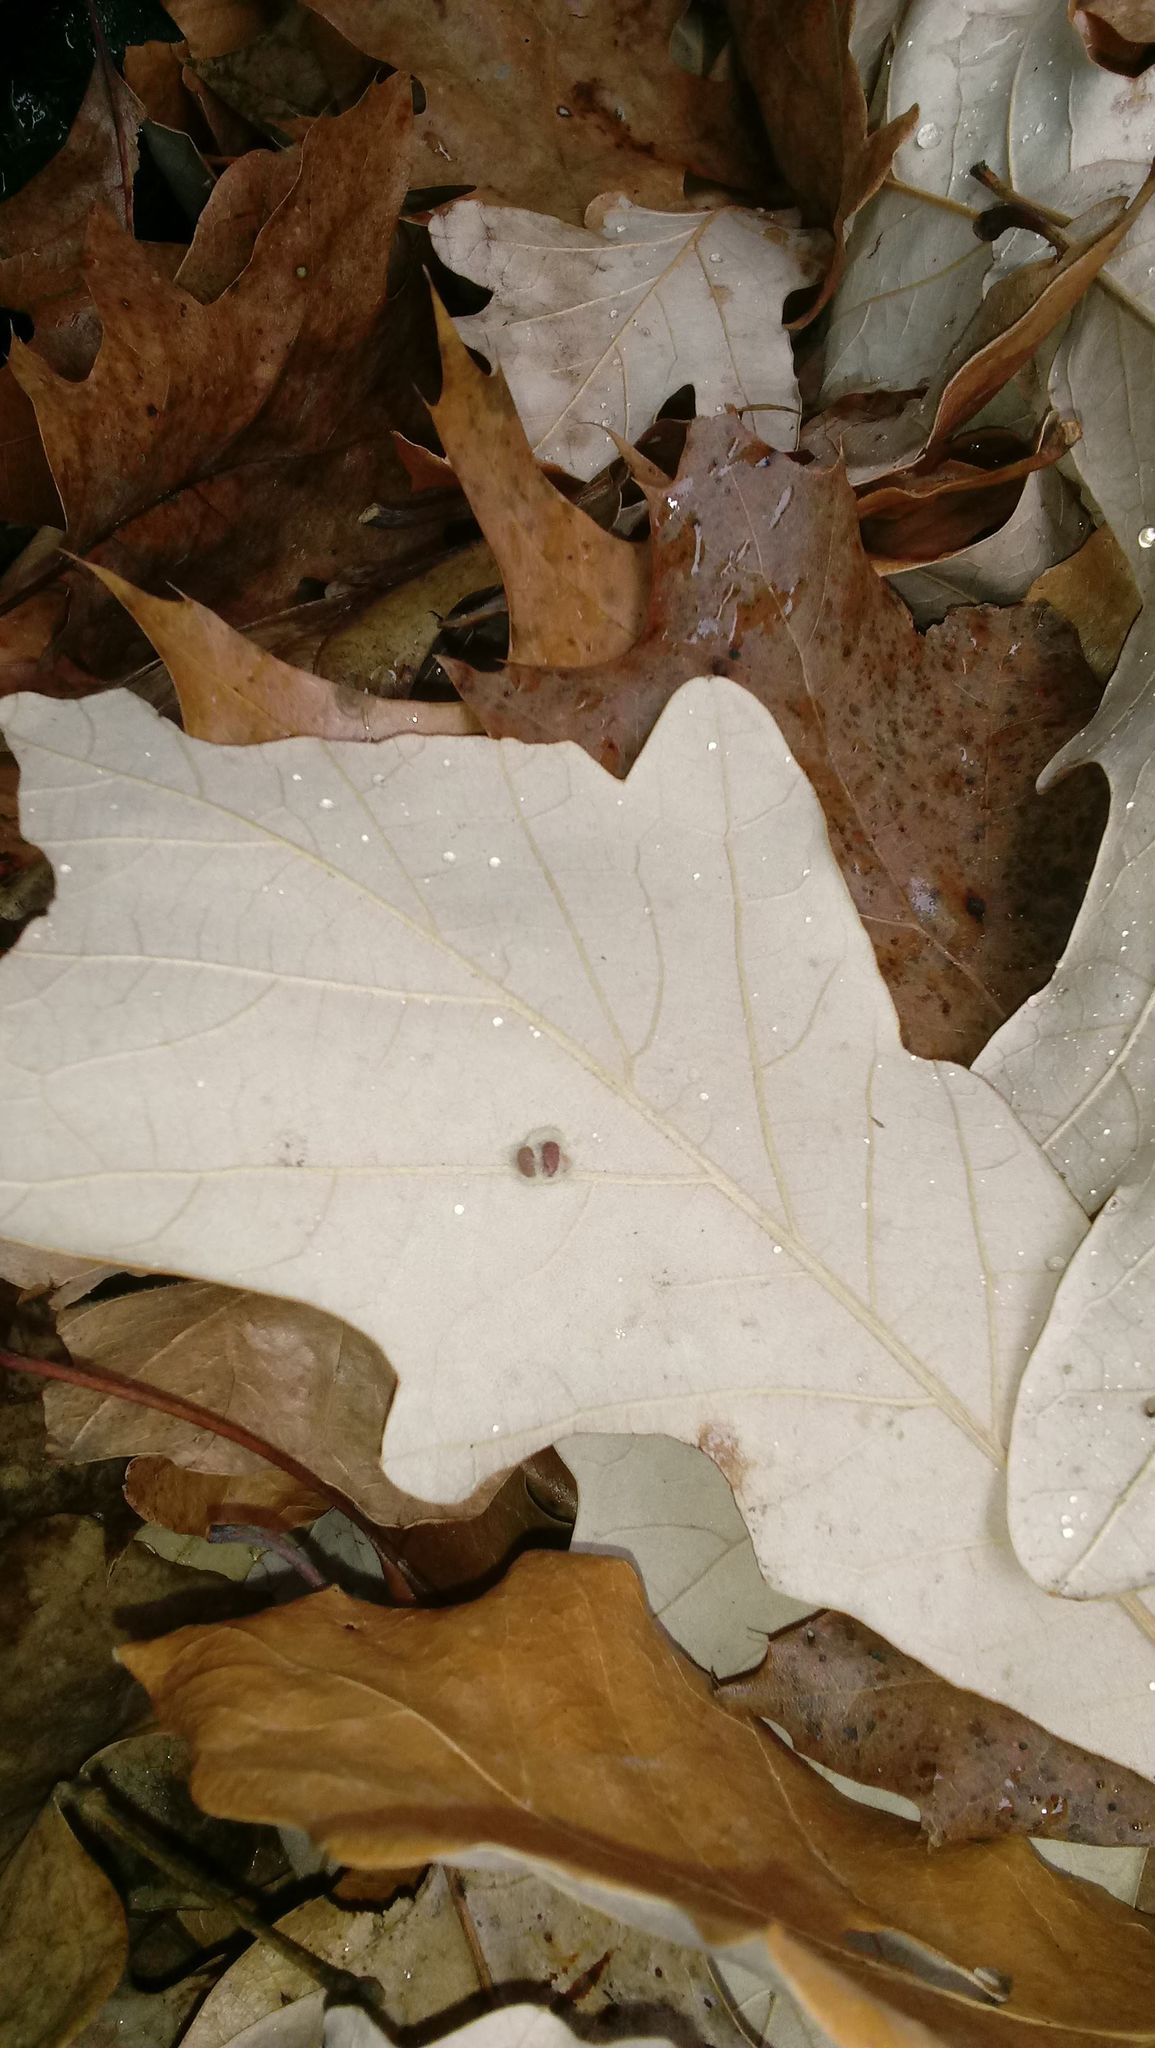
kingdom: Animalia
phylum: Arthropoda
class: Insecta
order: Hymenoptera
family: Cynipidae
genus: Andricus
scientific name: Andricus Druon ignotum
